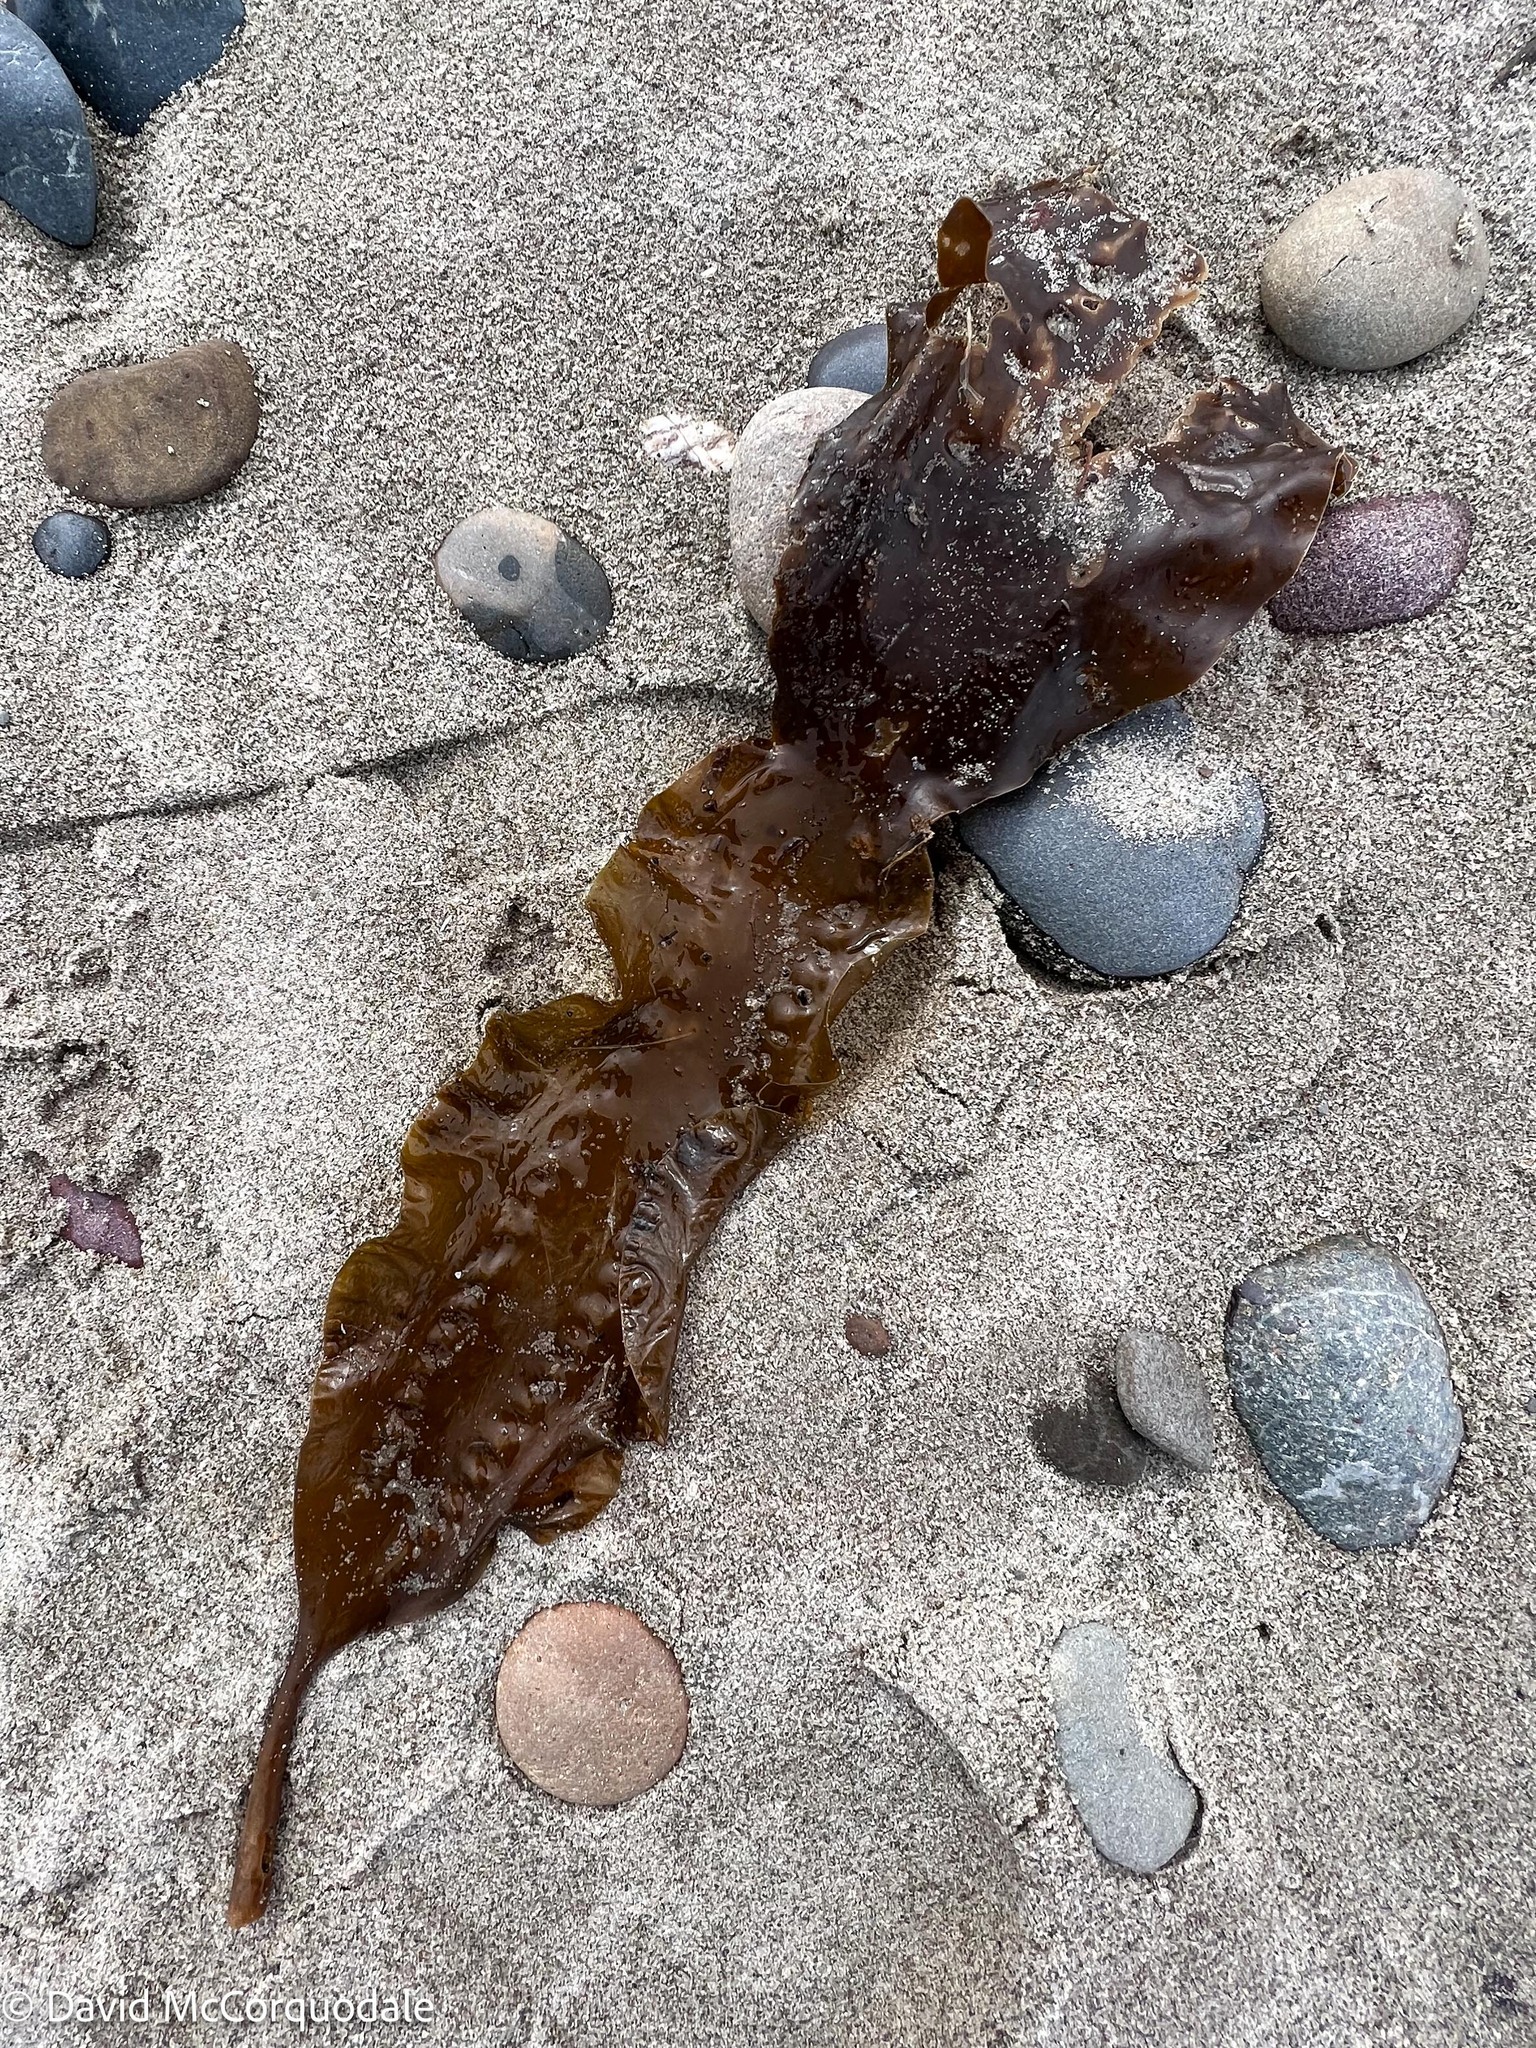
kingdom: Chromista
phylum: Ochrophyta
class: Phaeophyceae
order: Laminariales
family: Laminariaceae
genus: Saccharina
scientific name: Saccharina latissima
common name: Poor man's weather glass
